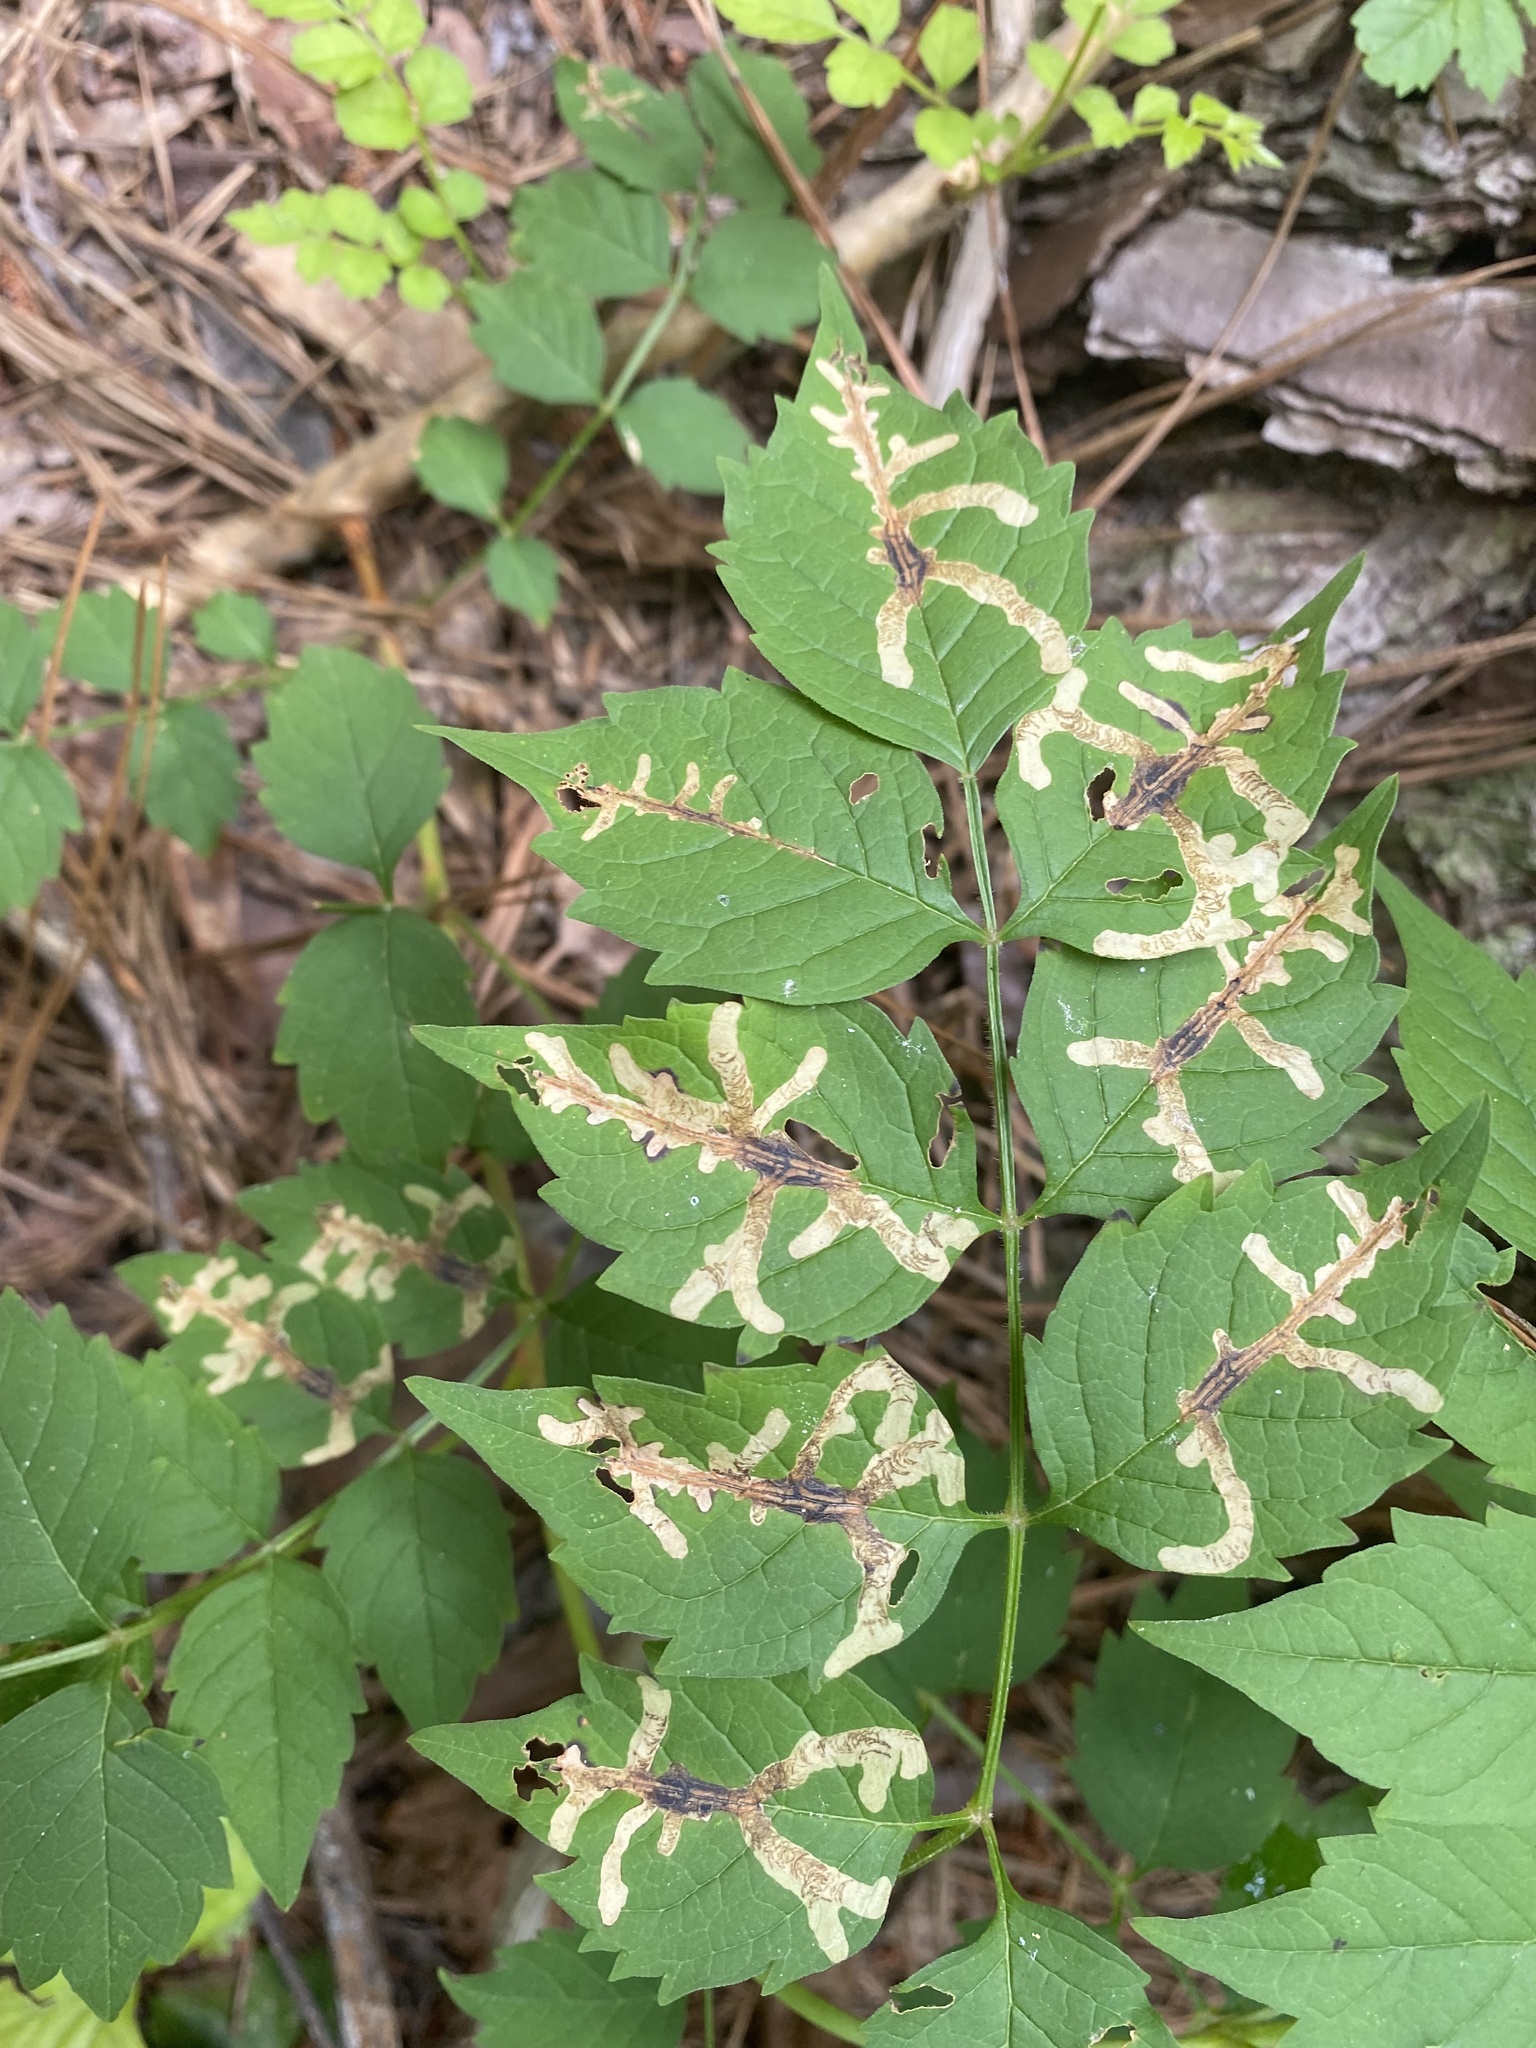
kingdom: Animalia
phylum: Arthropoda
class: Insecta
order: Coleoptera
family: Chrysomelidae
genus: Octotoma
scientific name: Octotoma plicatula
